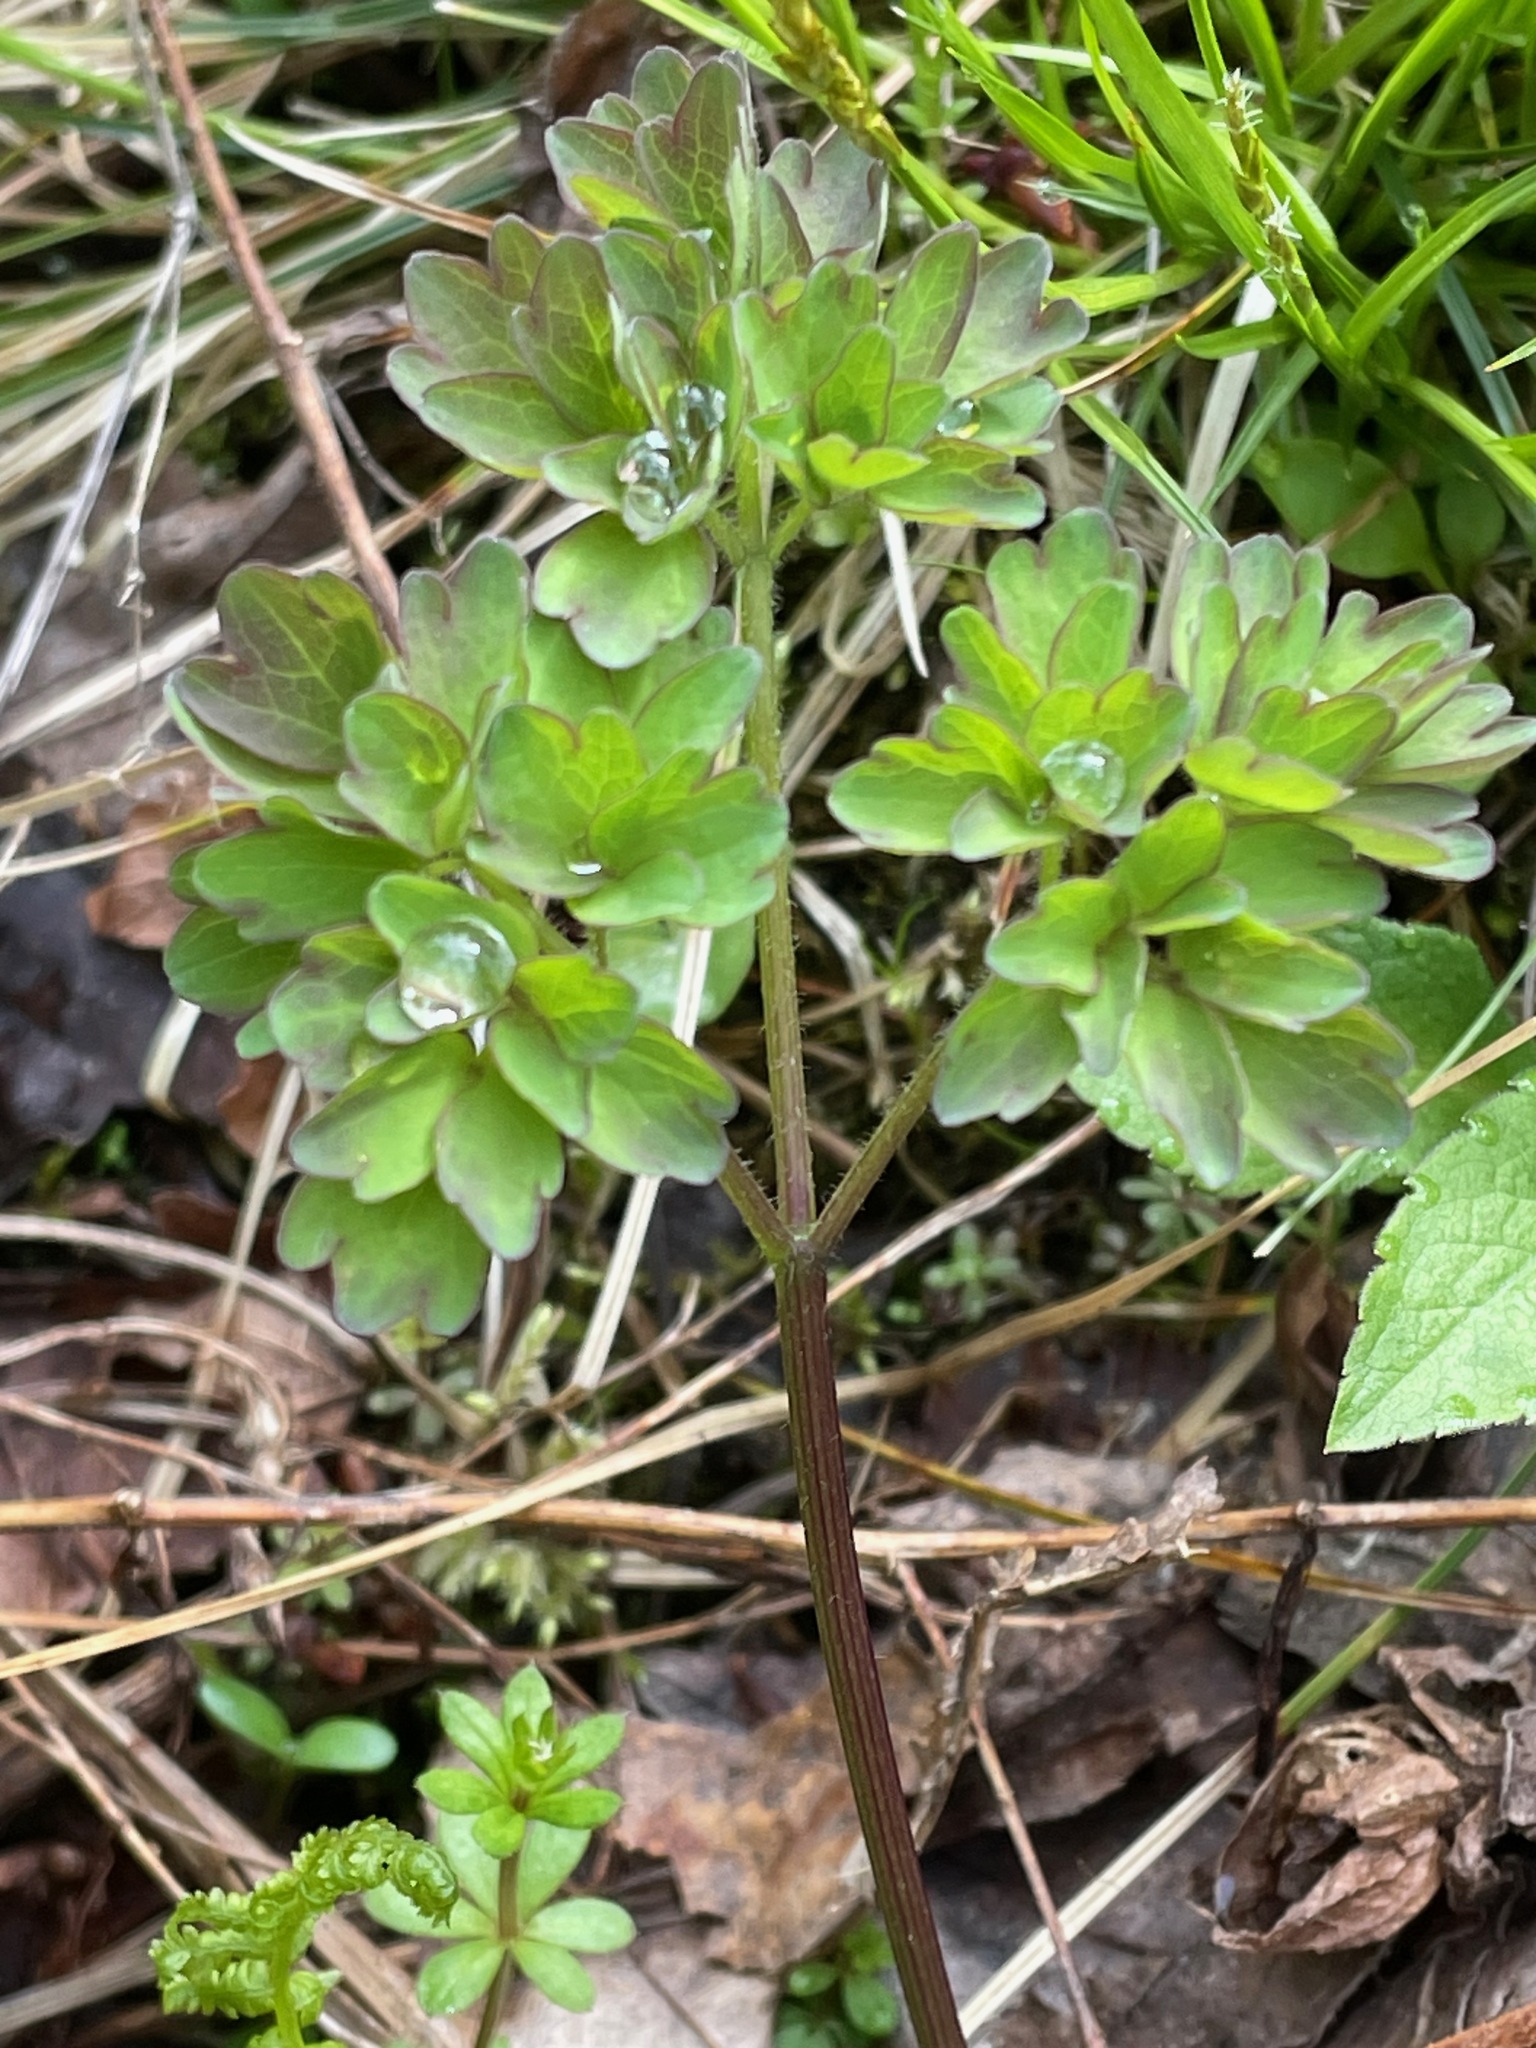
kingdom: Plantae
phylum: Tracheophyta
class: Magnoliopsida
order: Ranunculales
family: Ranunculaceae
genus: Thalictrum
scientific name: Thalictrum pubescens
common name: King-of-the-meadow
